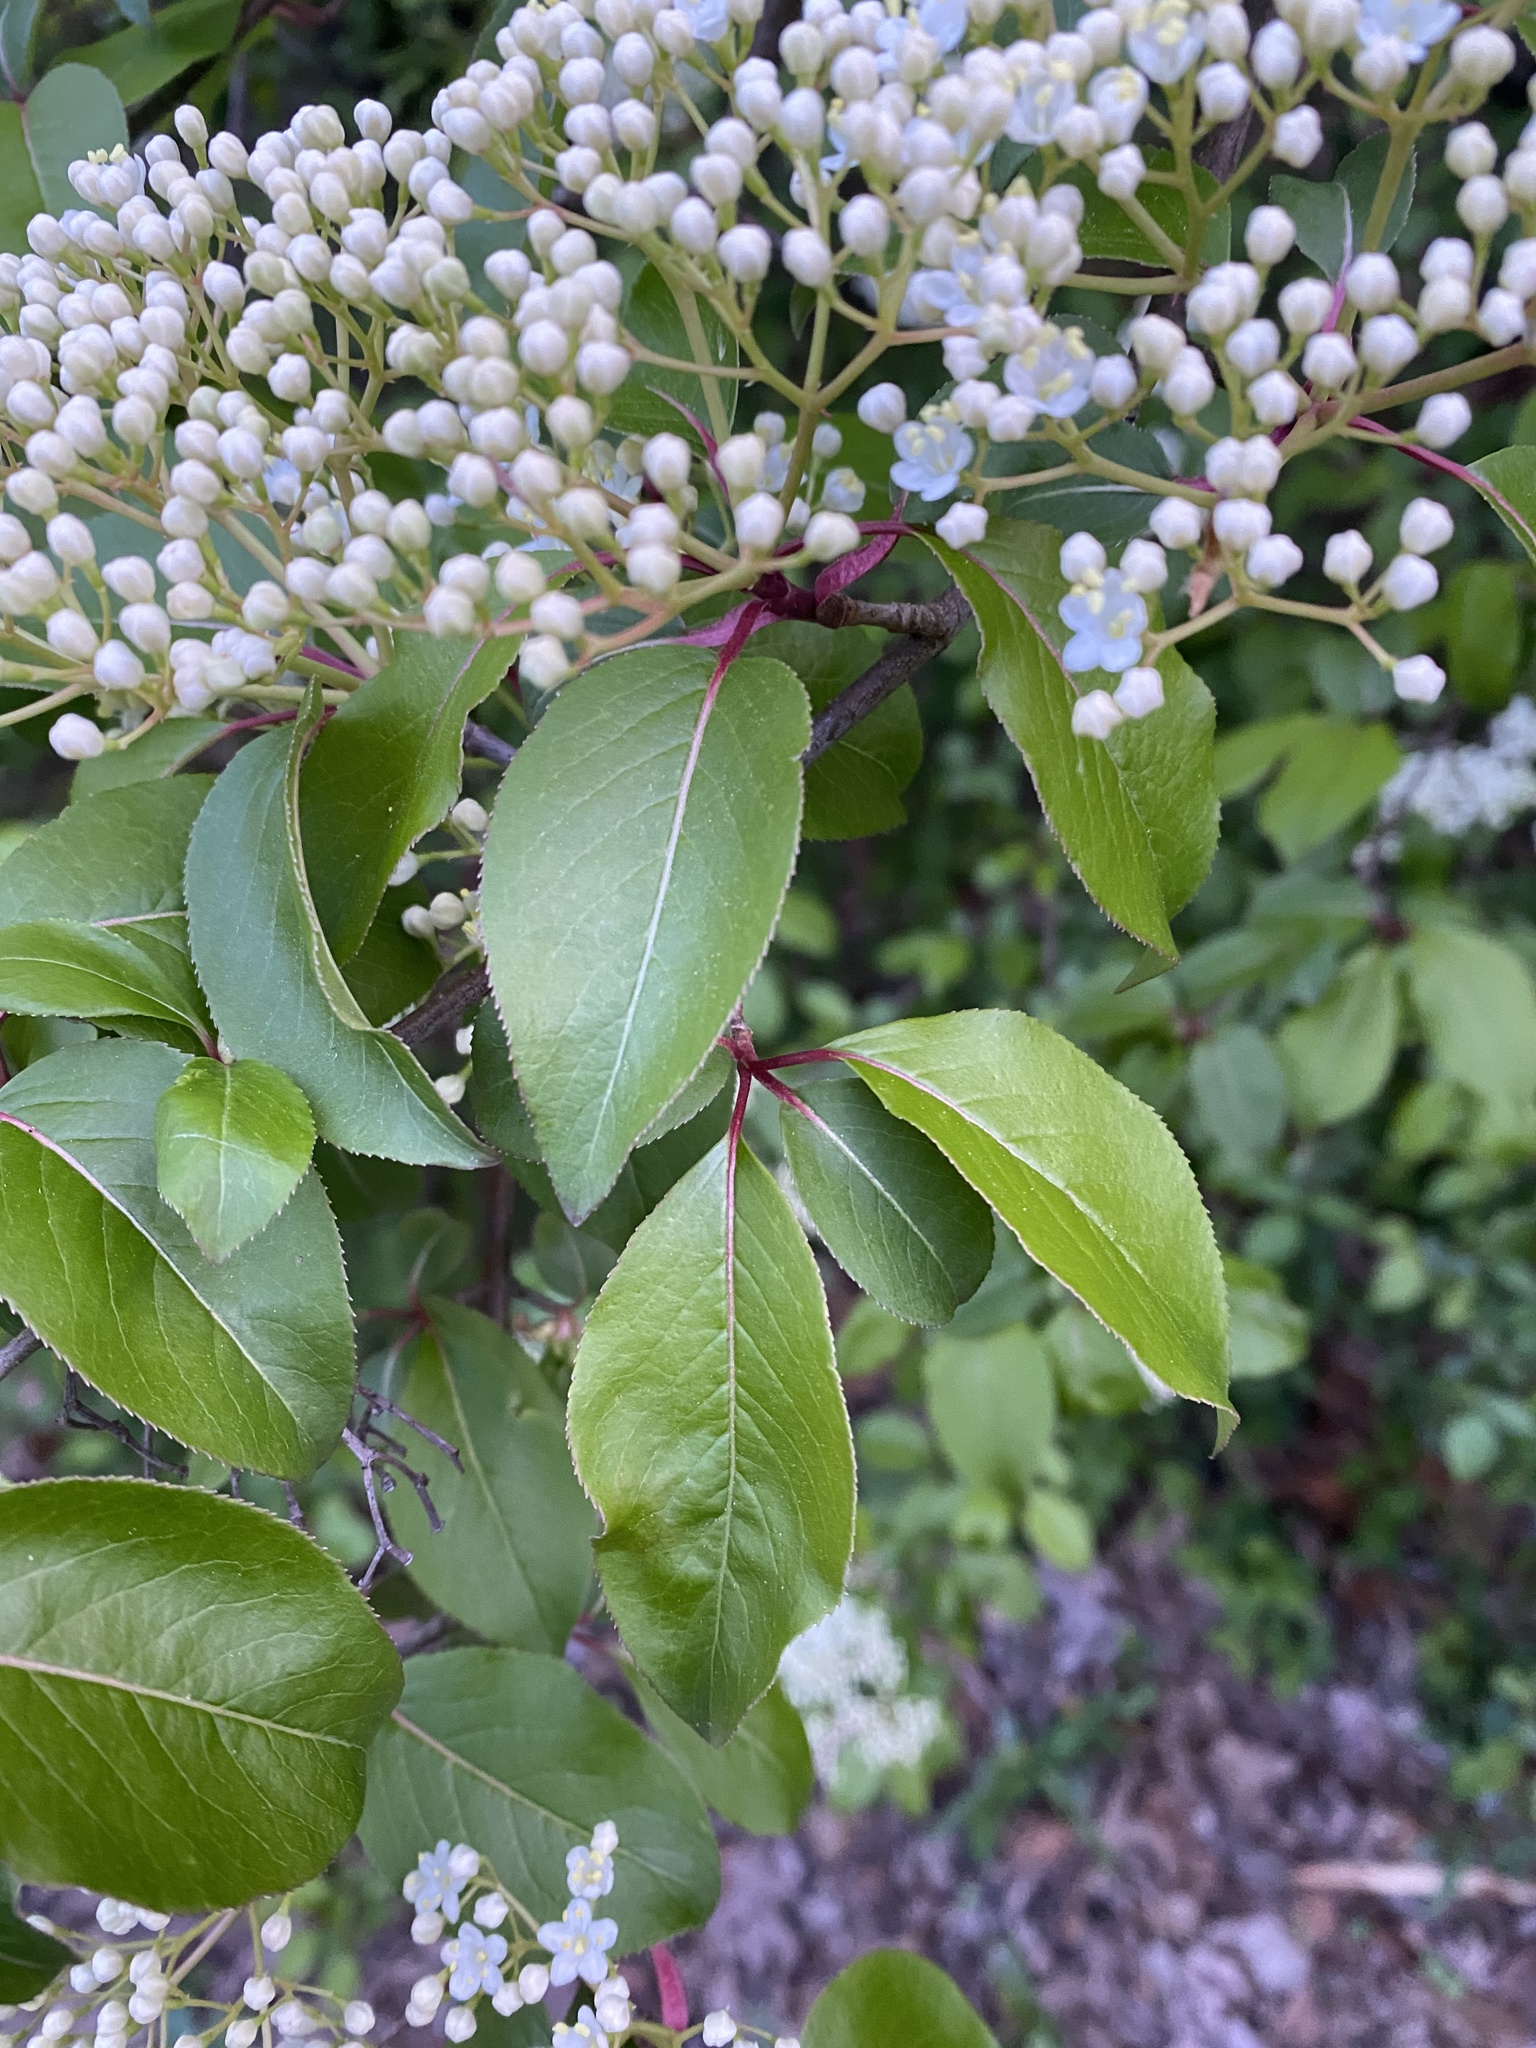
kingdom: Plantae
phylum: Tracheophyta
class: Magnoliopsida
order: Dipsacales
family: Viburnaceae
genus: Viburnum
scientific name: Viburnum prunifolium
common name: Black haw
